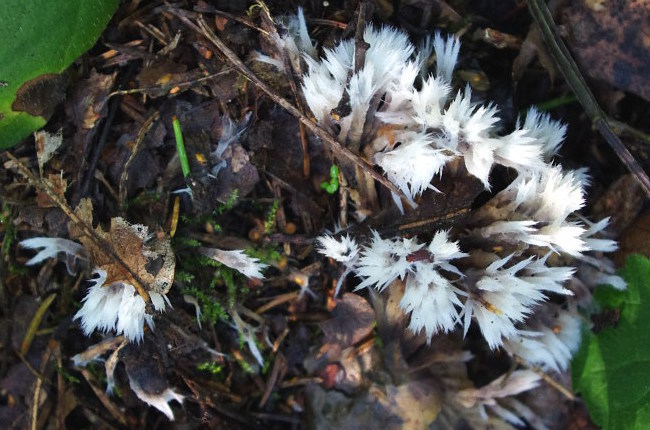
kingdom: Fungi
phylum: Basidiomycota
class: Agaricomycetes
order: Thelephorales
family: Thelephoraceae
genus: Thelephora
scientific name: Thelephora penicillata
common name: Urchin earthfan
